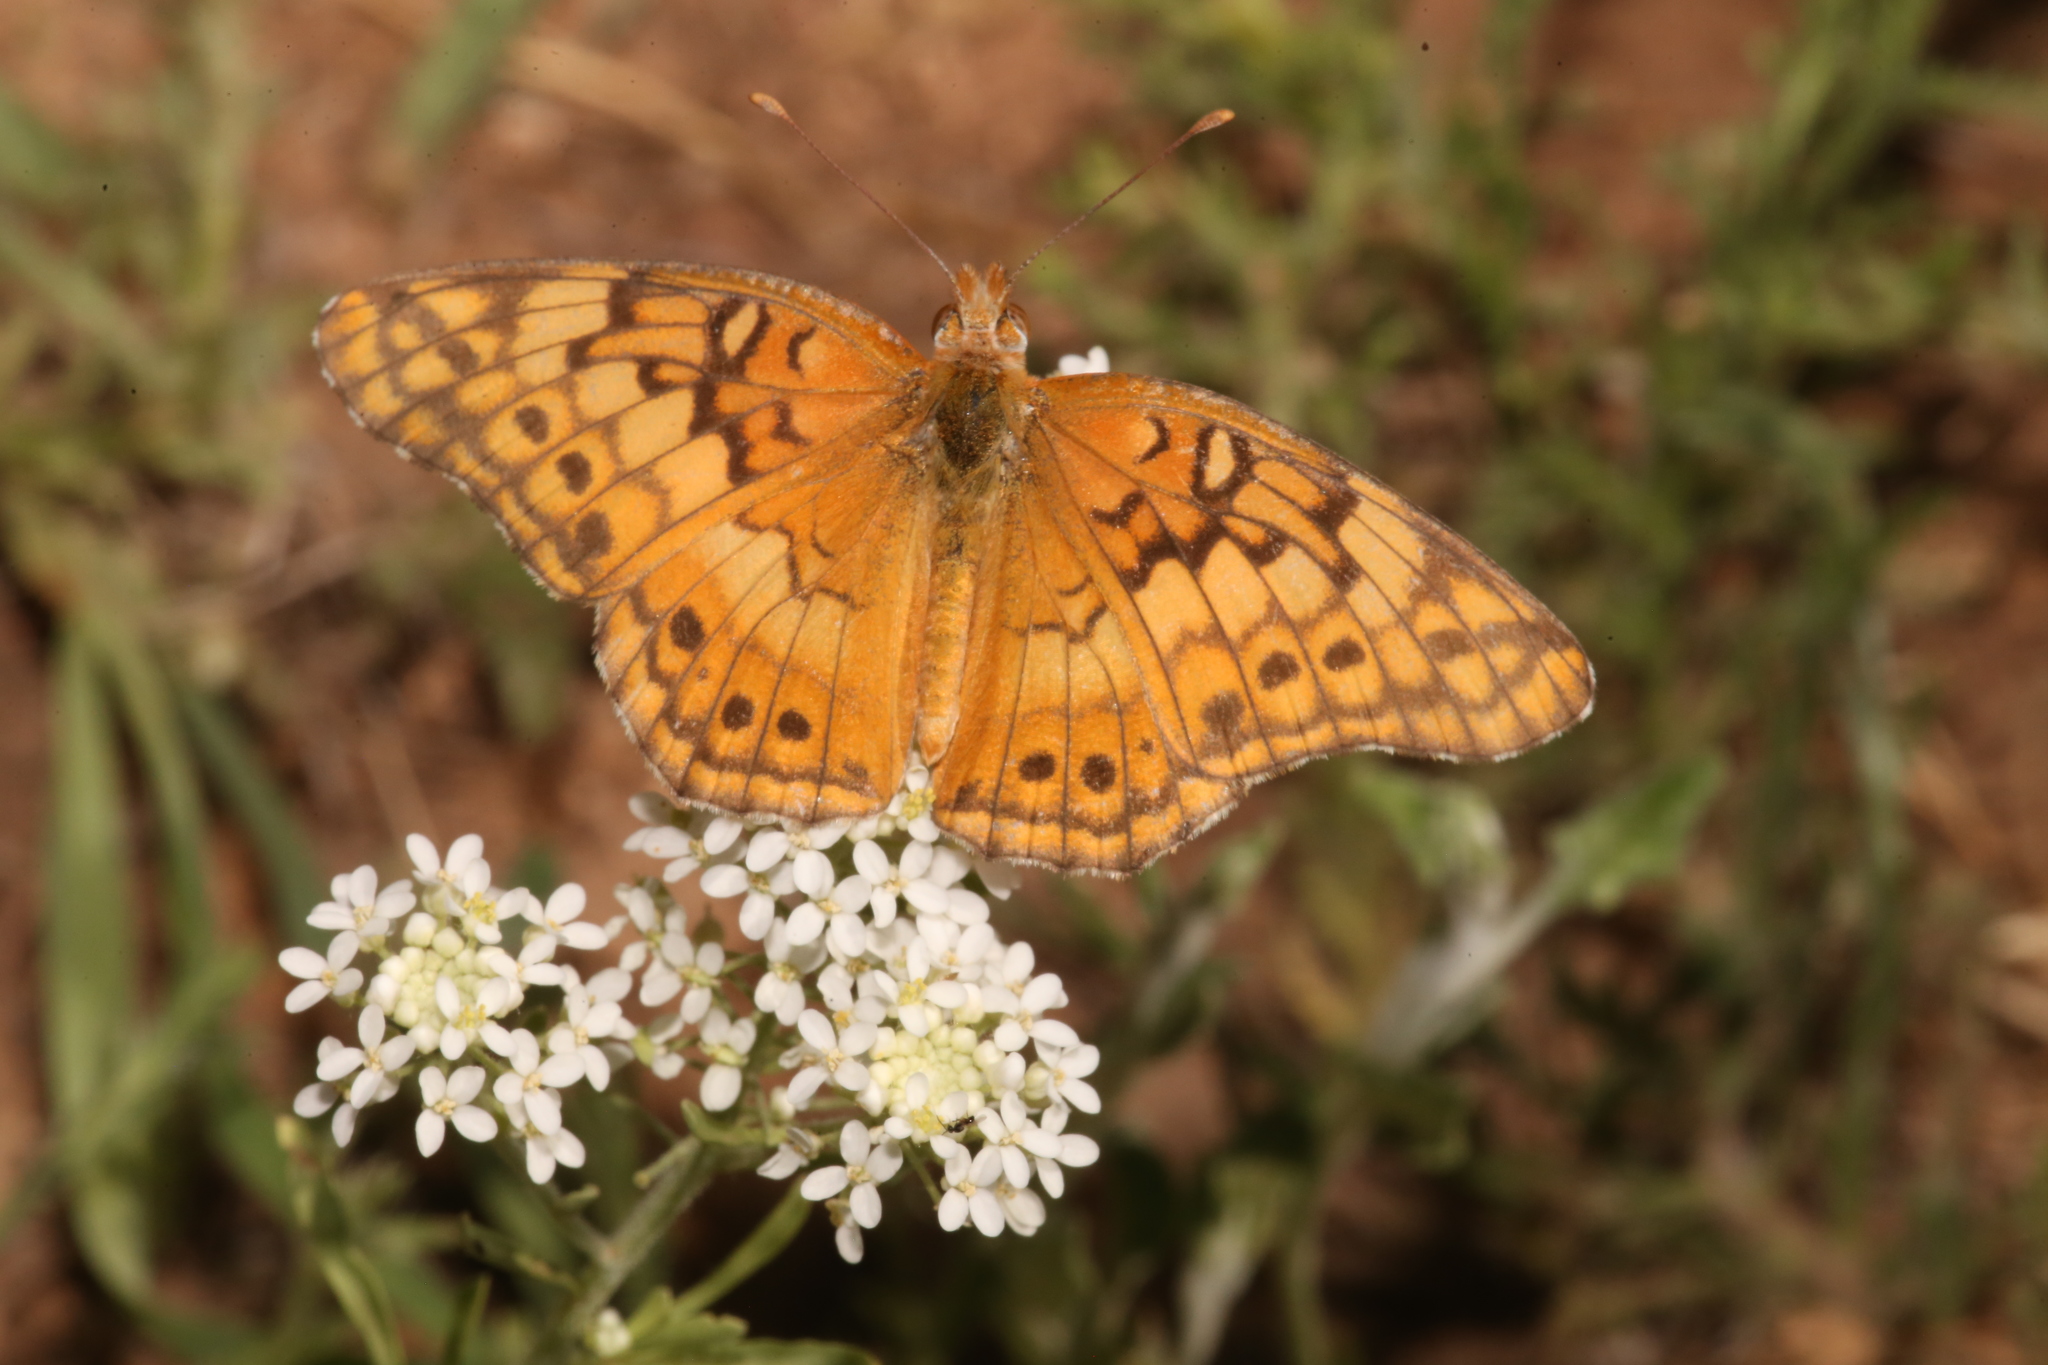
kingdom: Animalia
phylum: Arthropoda
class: Insecta
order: Lepidoptera
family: Nymphalidae
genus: Euptoieta
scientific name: Euptoieta claudia
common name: Variegated fritillary
